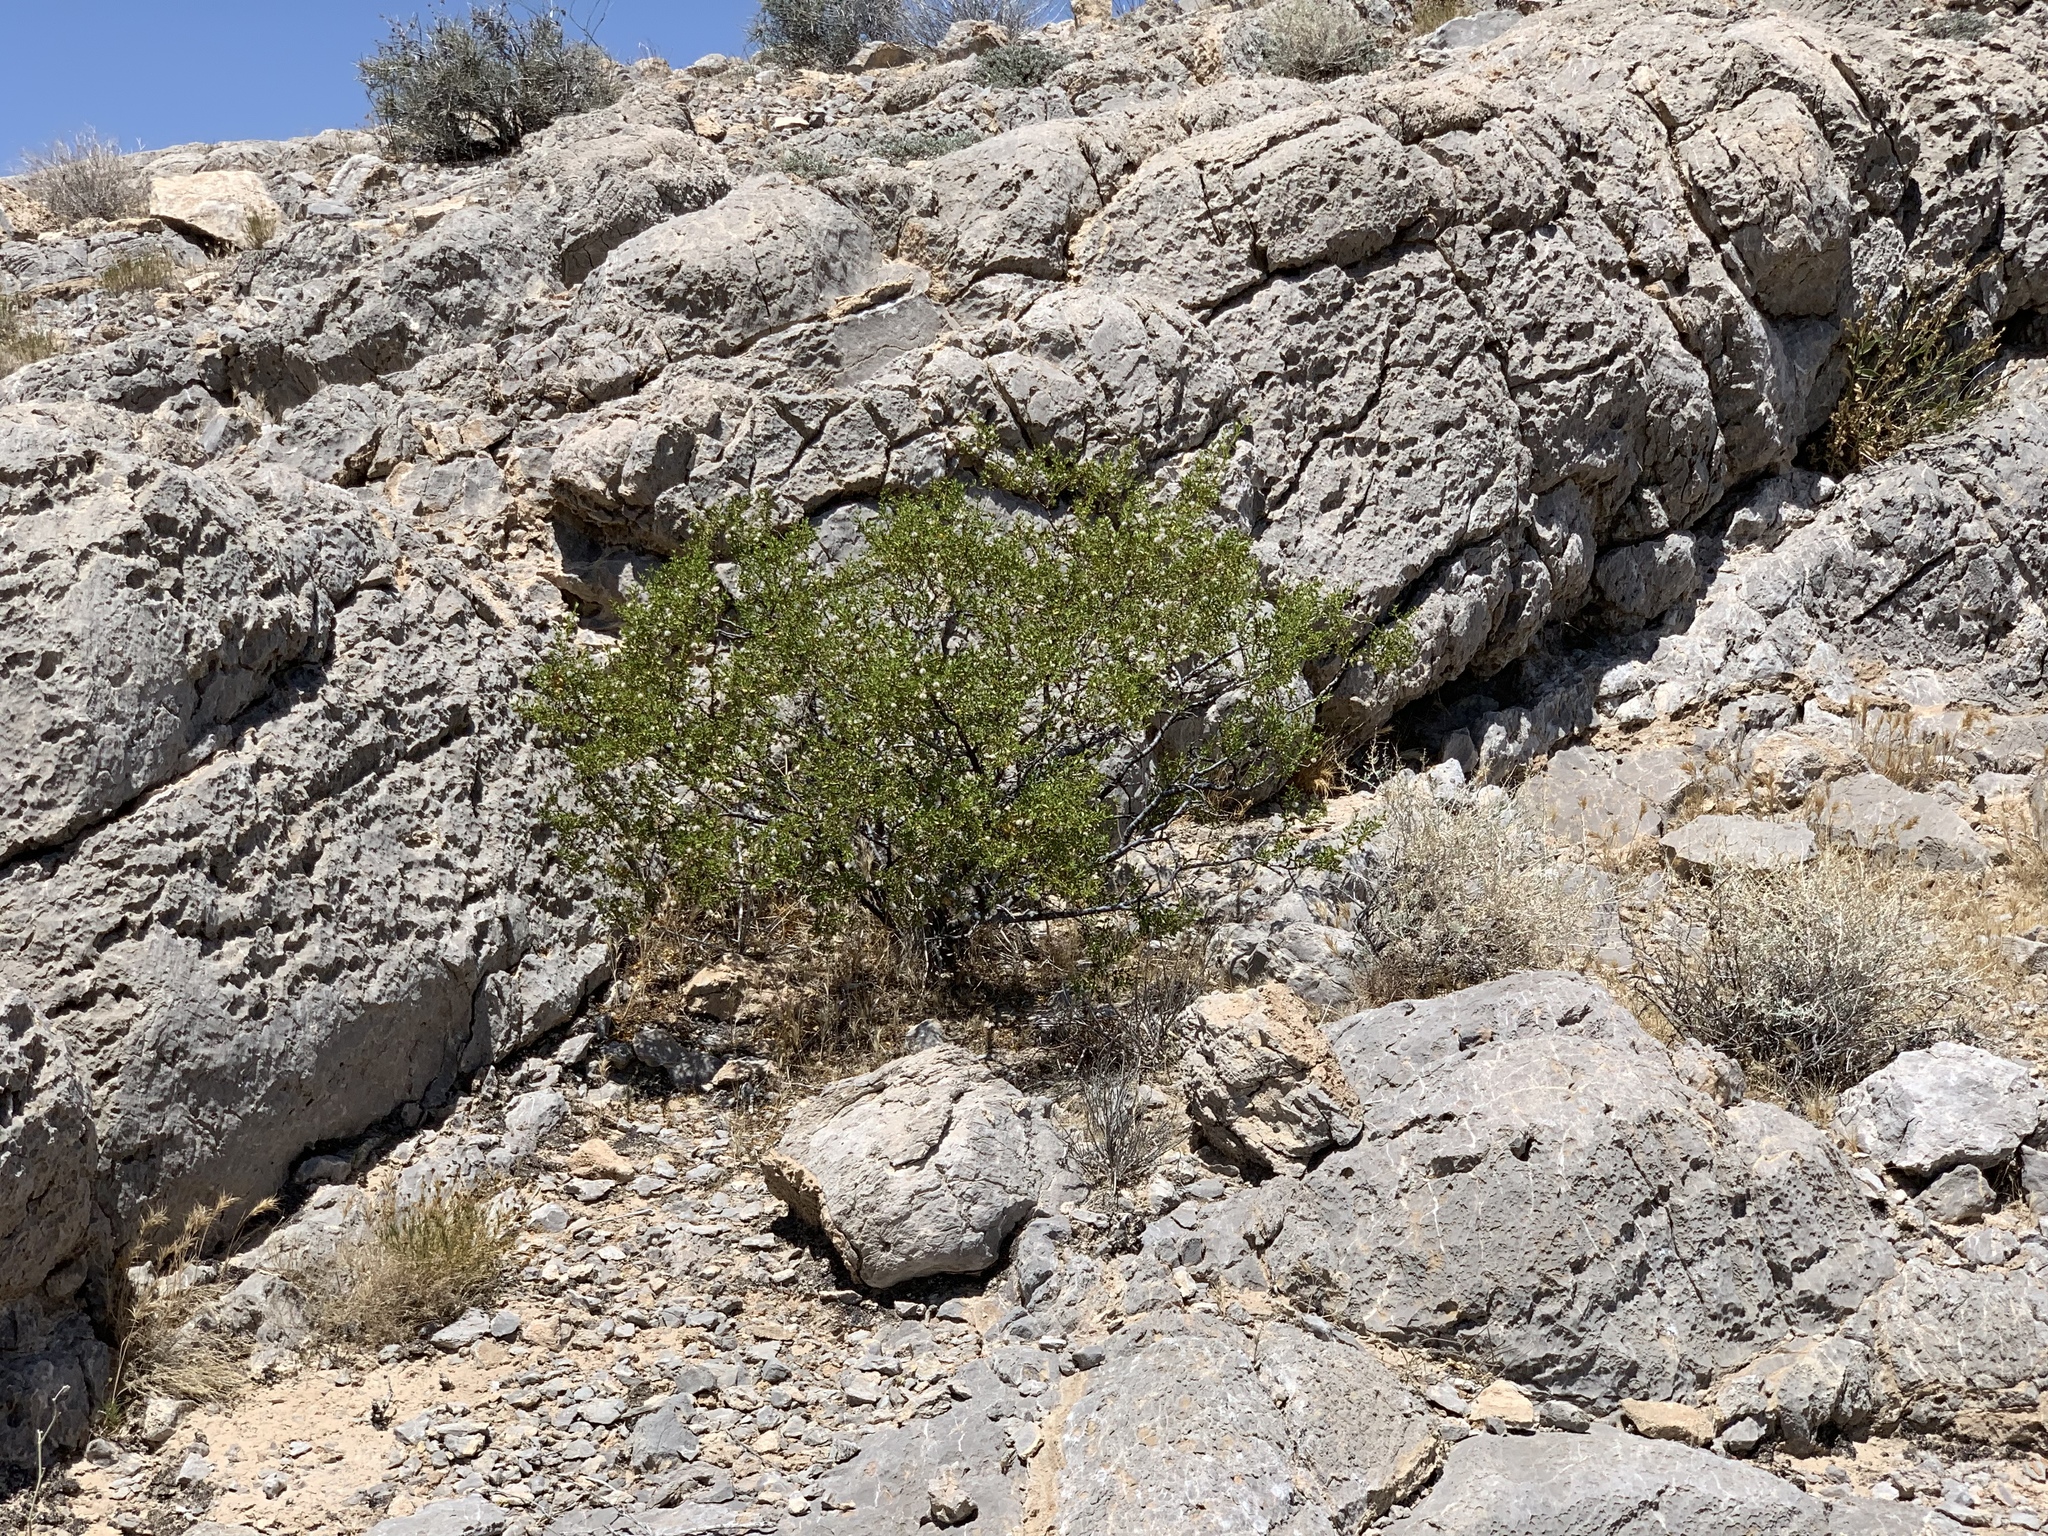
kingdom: Plantae
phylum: Tracheophyta
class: Magnoliopsida
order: Zygophyllales
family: Zygophyllaceae
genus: Larrea
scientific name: Larrea tridentata
